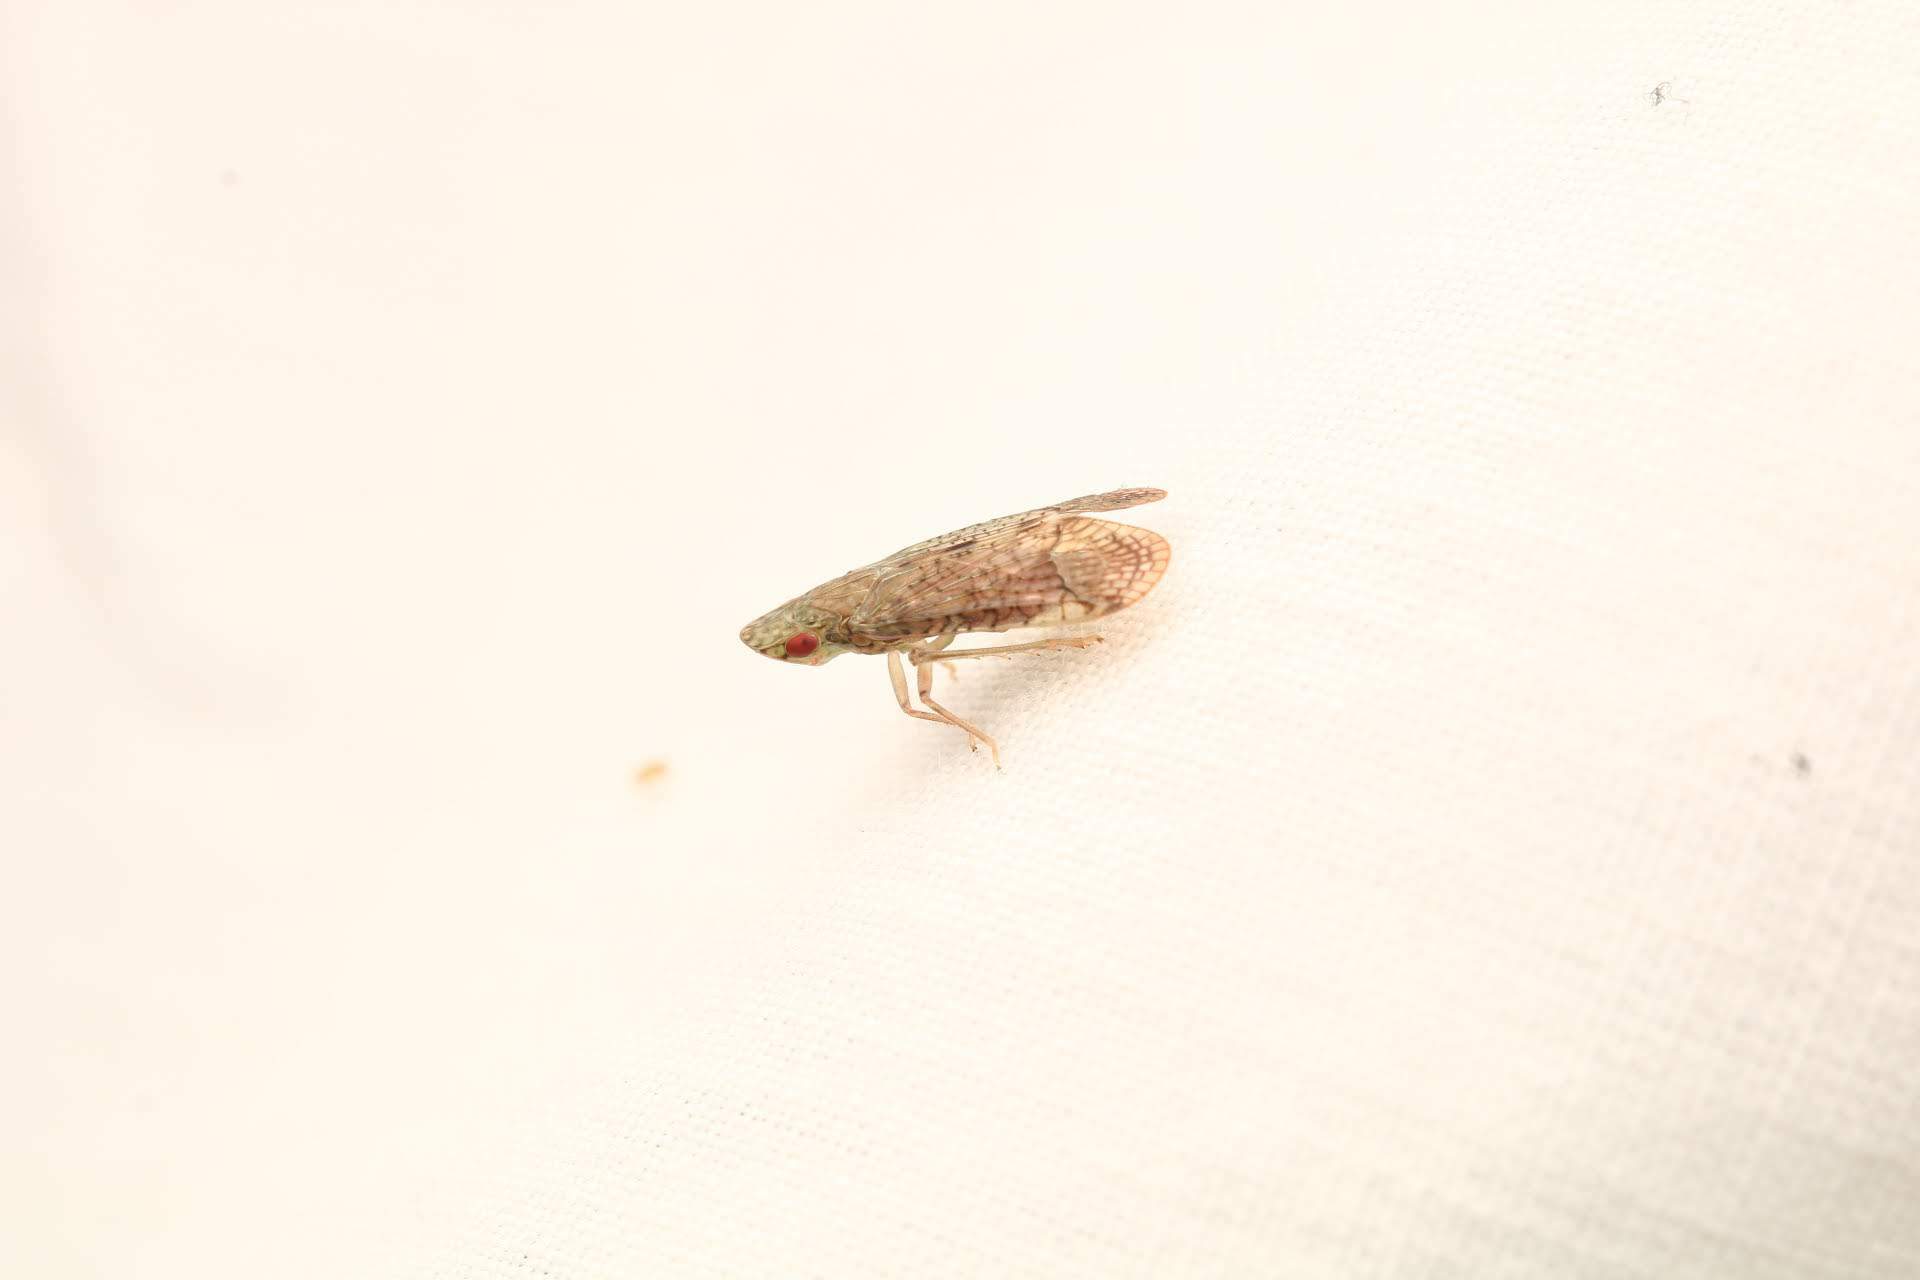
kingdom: Animalia
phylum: Arthropoda
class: Insecta
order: Hemiptera
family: Tropiduchidae
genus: Pelitropis
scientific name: Pelitropis rotulata
